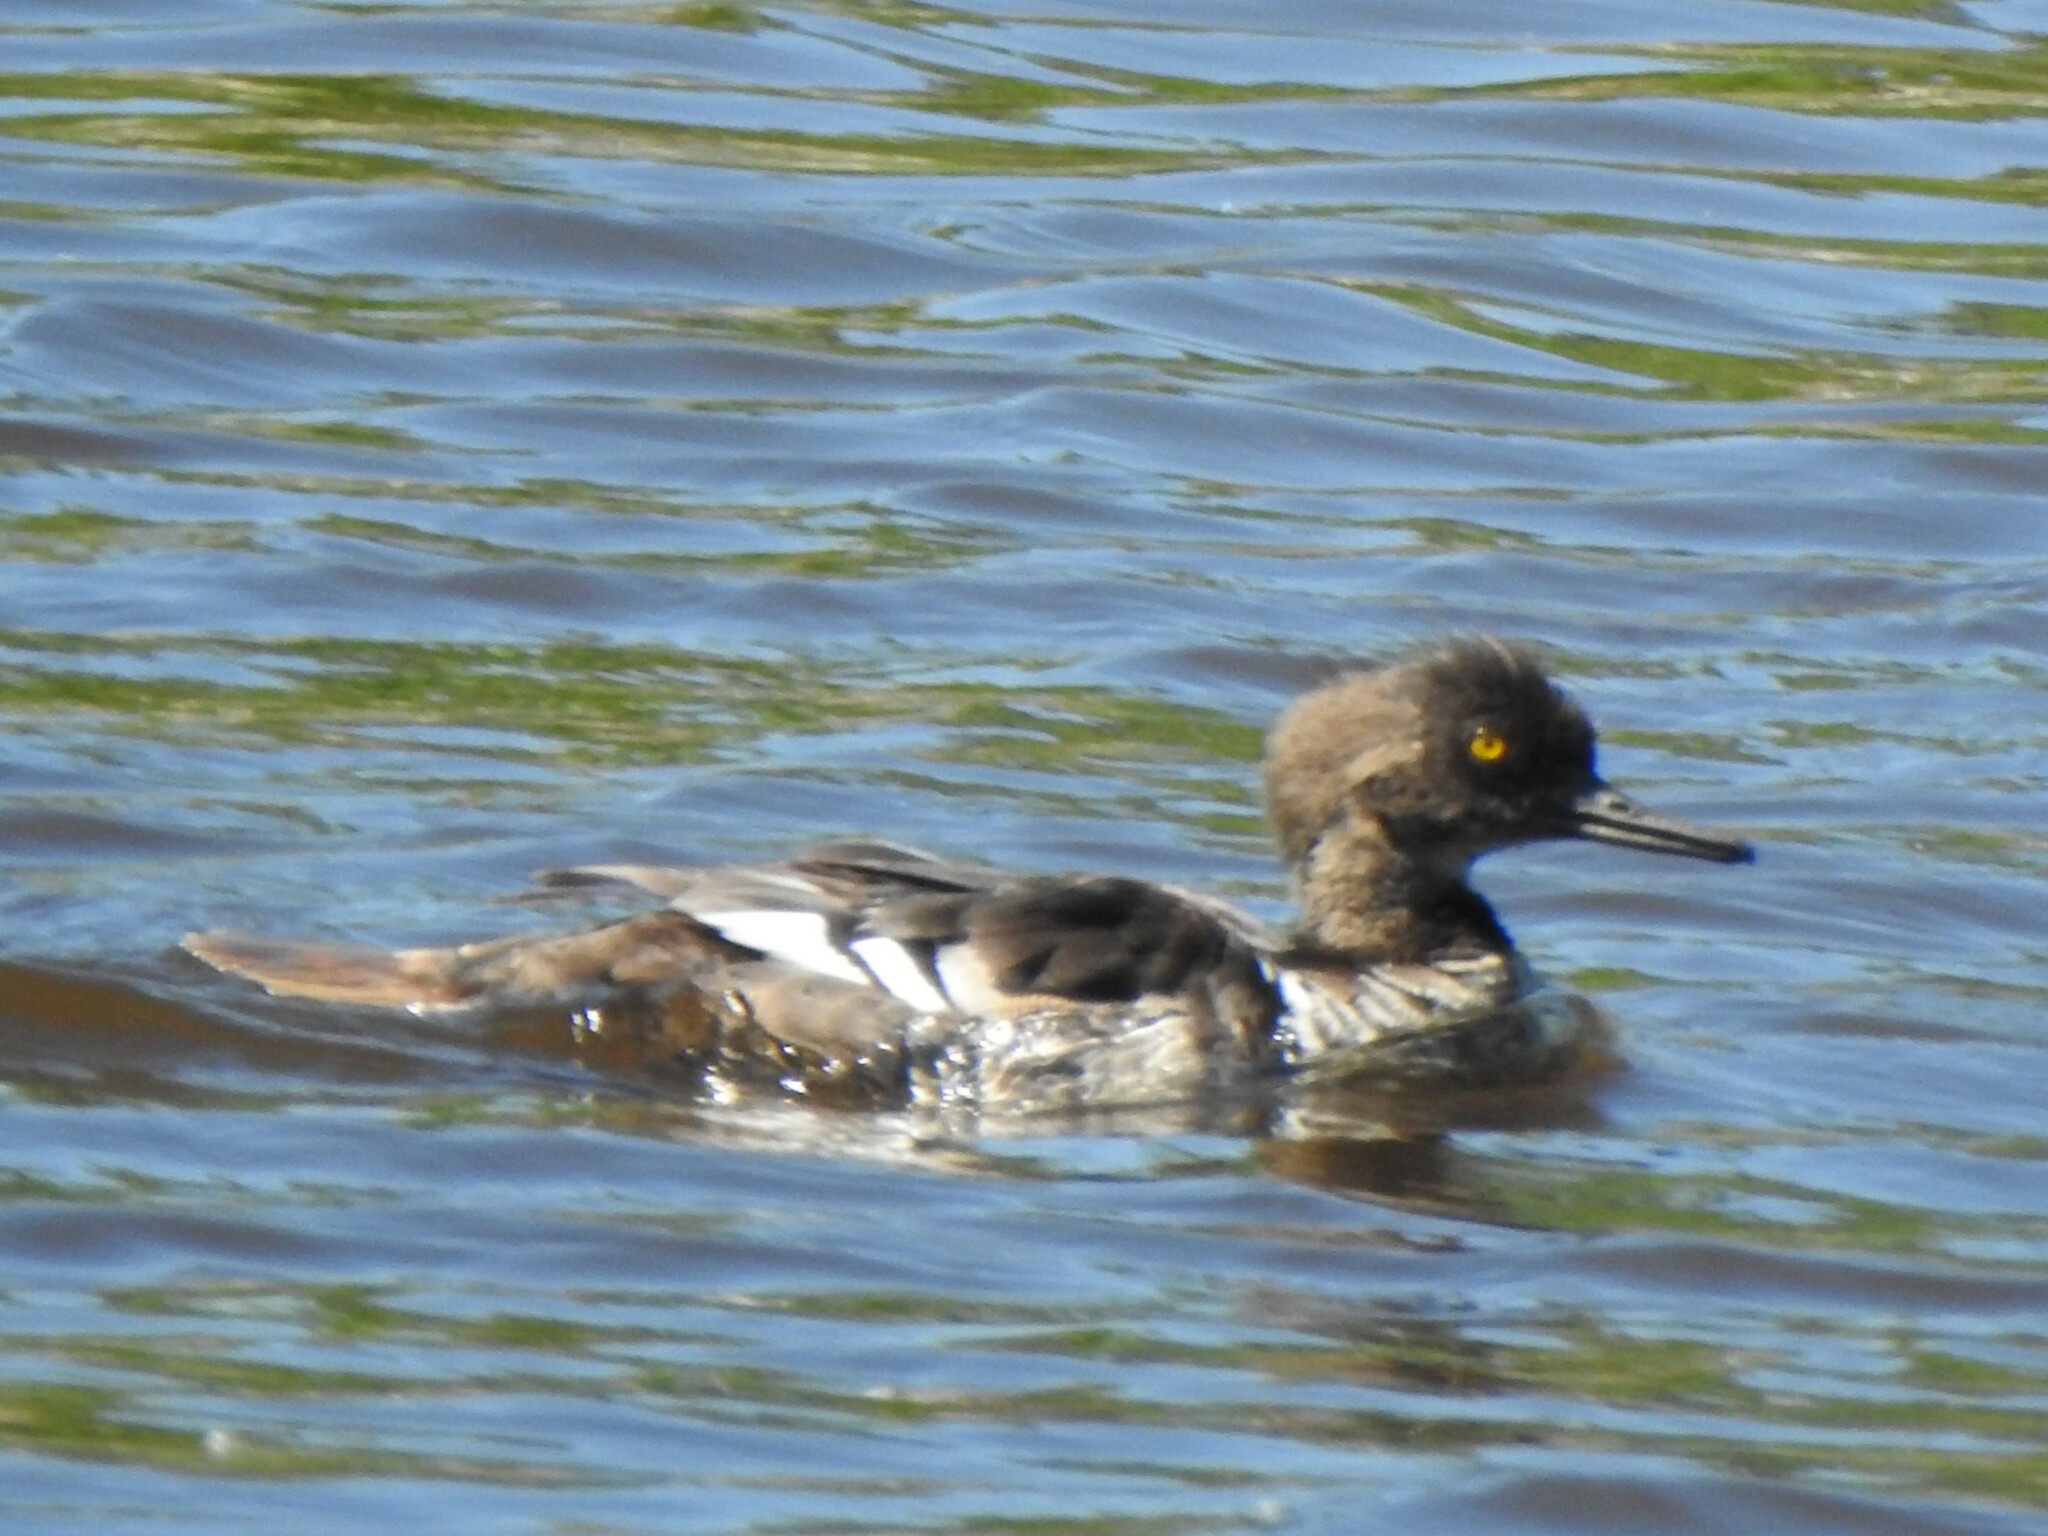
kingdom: Animalia
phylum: Chordata
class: Aves
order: Anseriformes
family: Anatidae
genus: Lophodytes
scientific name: Lophodytes cucullatus
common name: Hooded merganser
